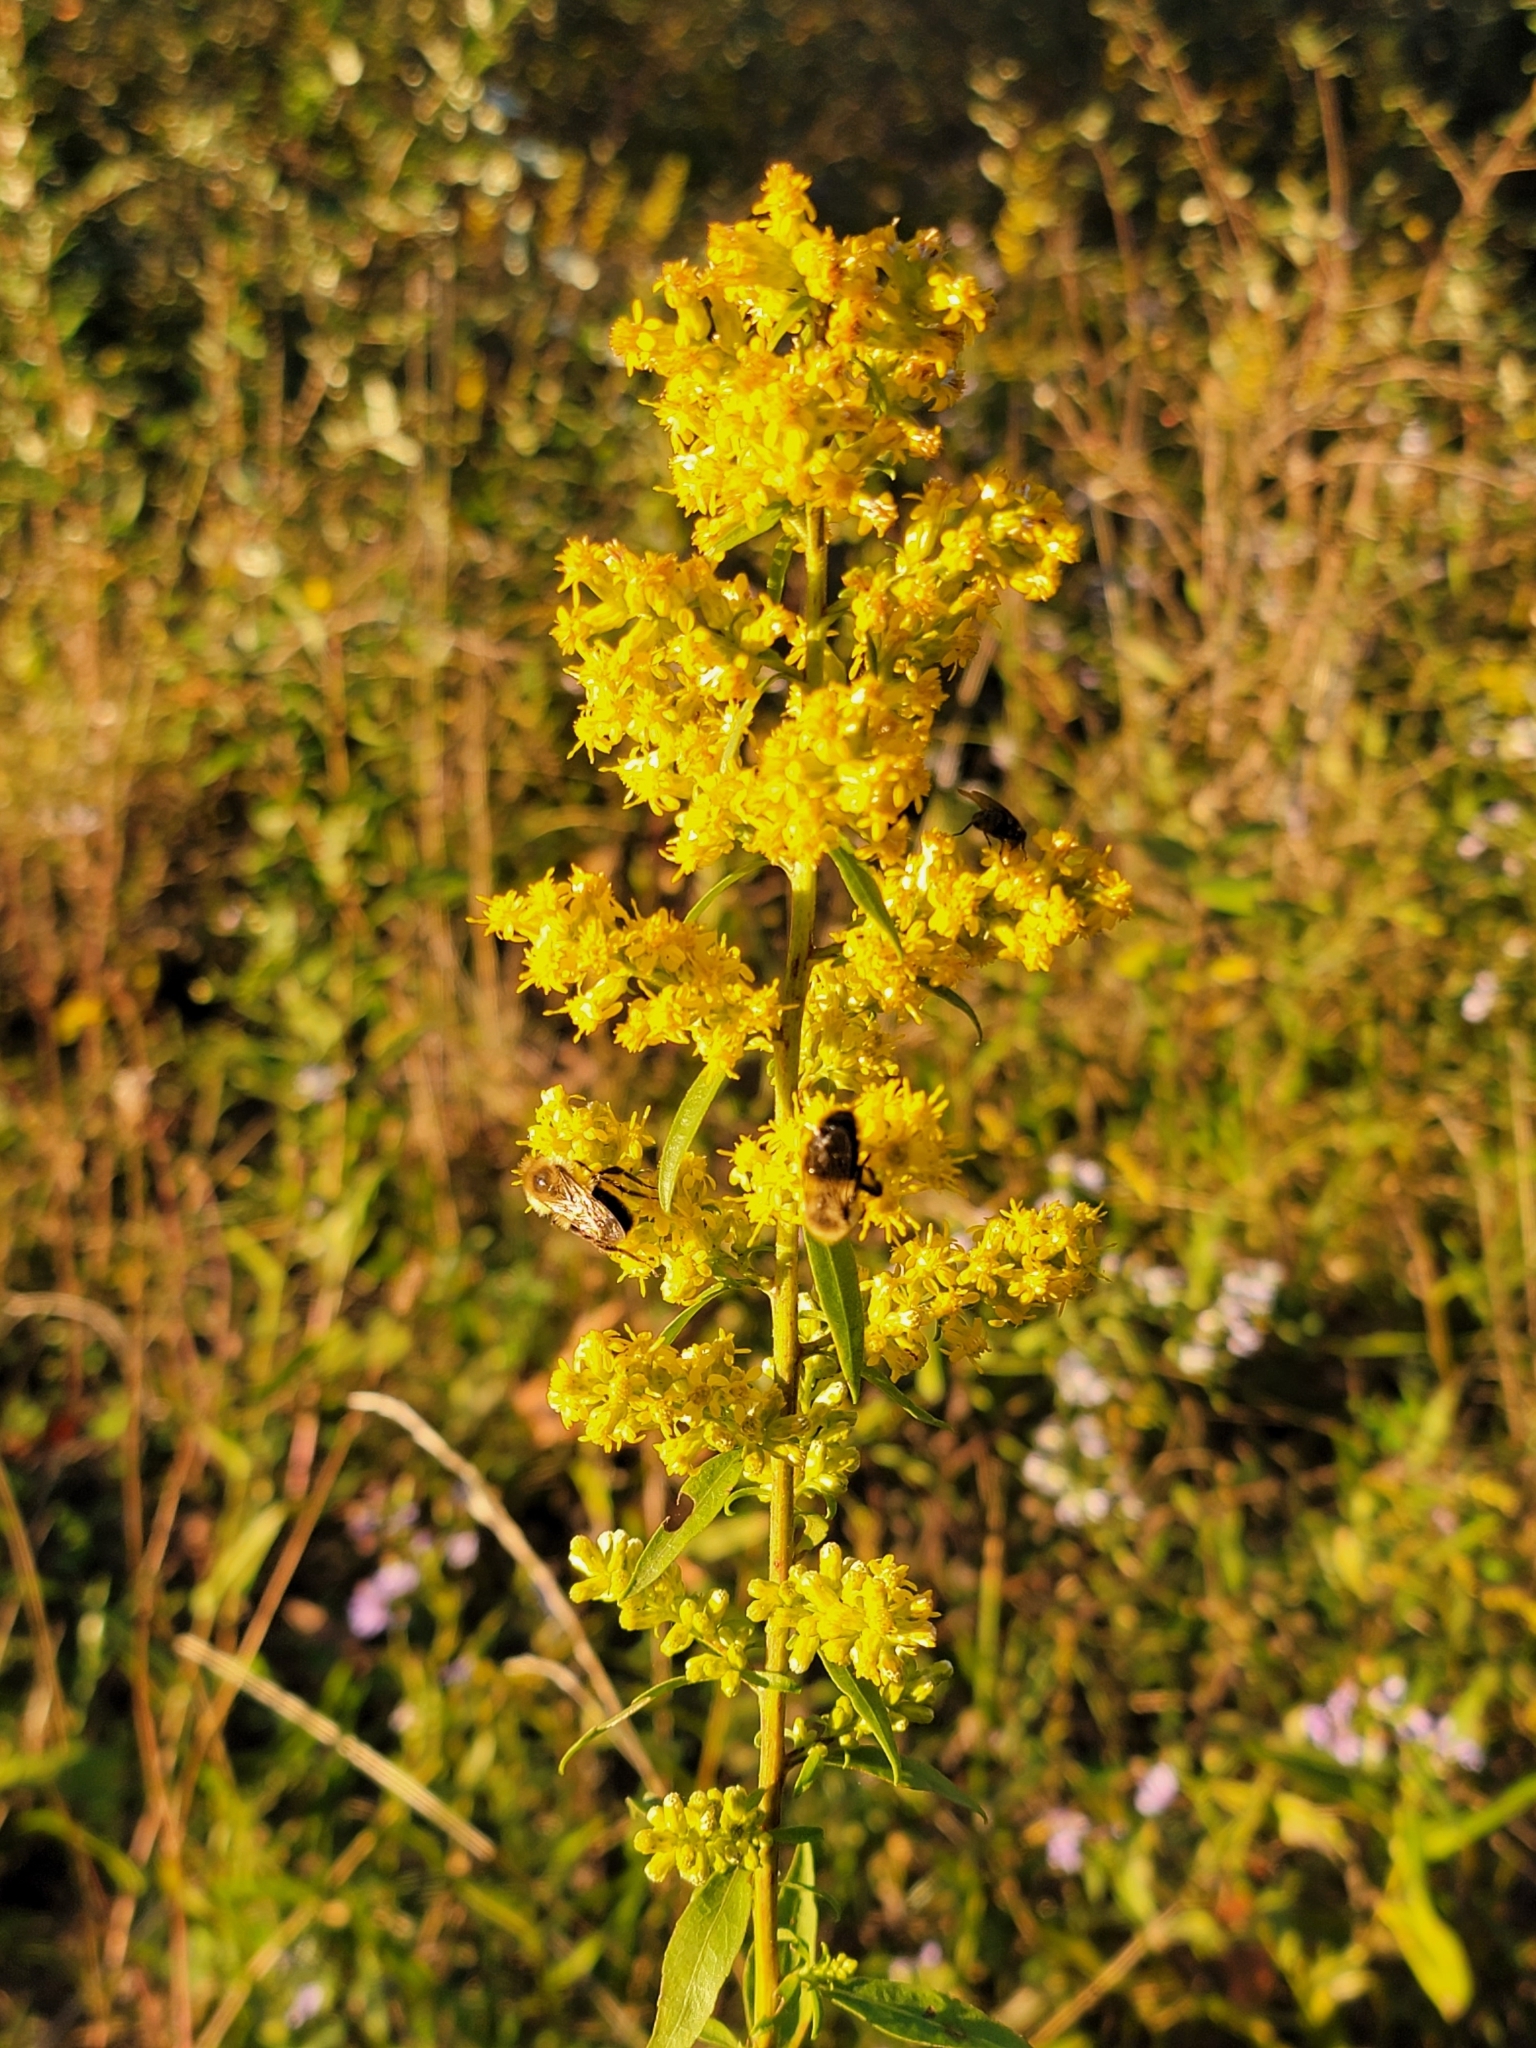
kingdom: Plantae
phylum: Tracheophyta
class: Magnoliopsida
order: Asterales
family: Asteraceae
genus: Solidago
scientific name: Solidago speciosa
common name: Showy goldenrod
